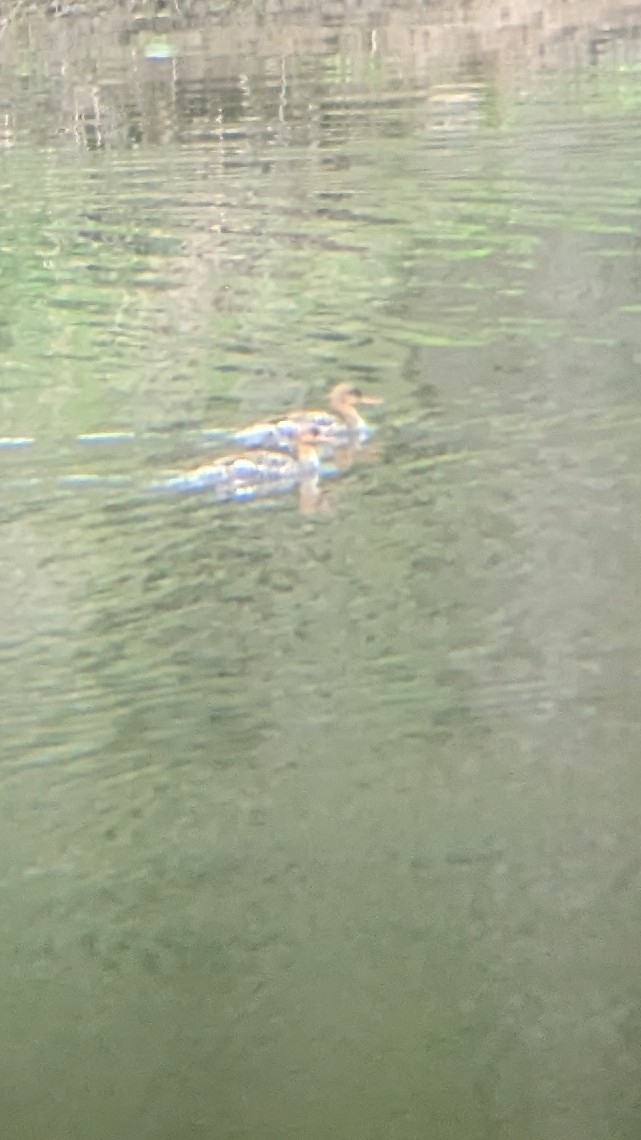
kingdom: Animalia
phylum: Chordata
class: Aves
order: Anseriformes
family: Anatidae
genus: Mergus
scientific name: Mergus serrator
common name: Red-breasted merganser
